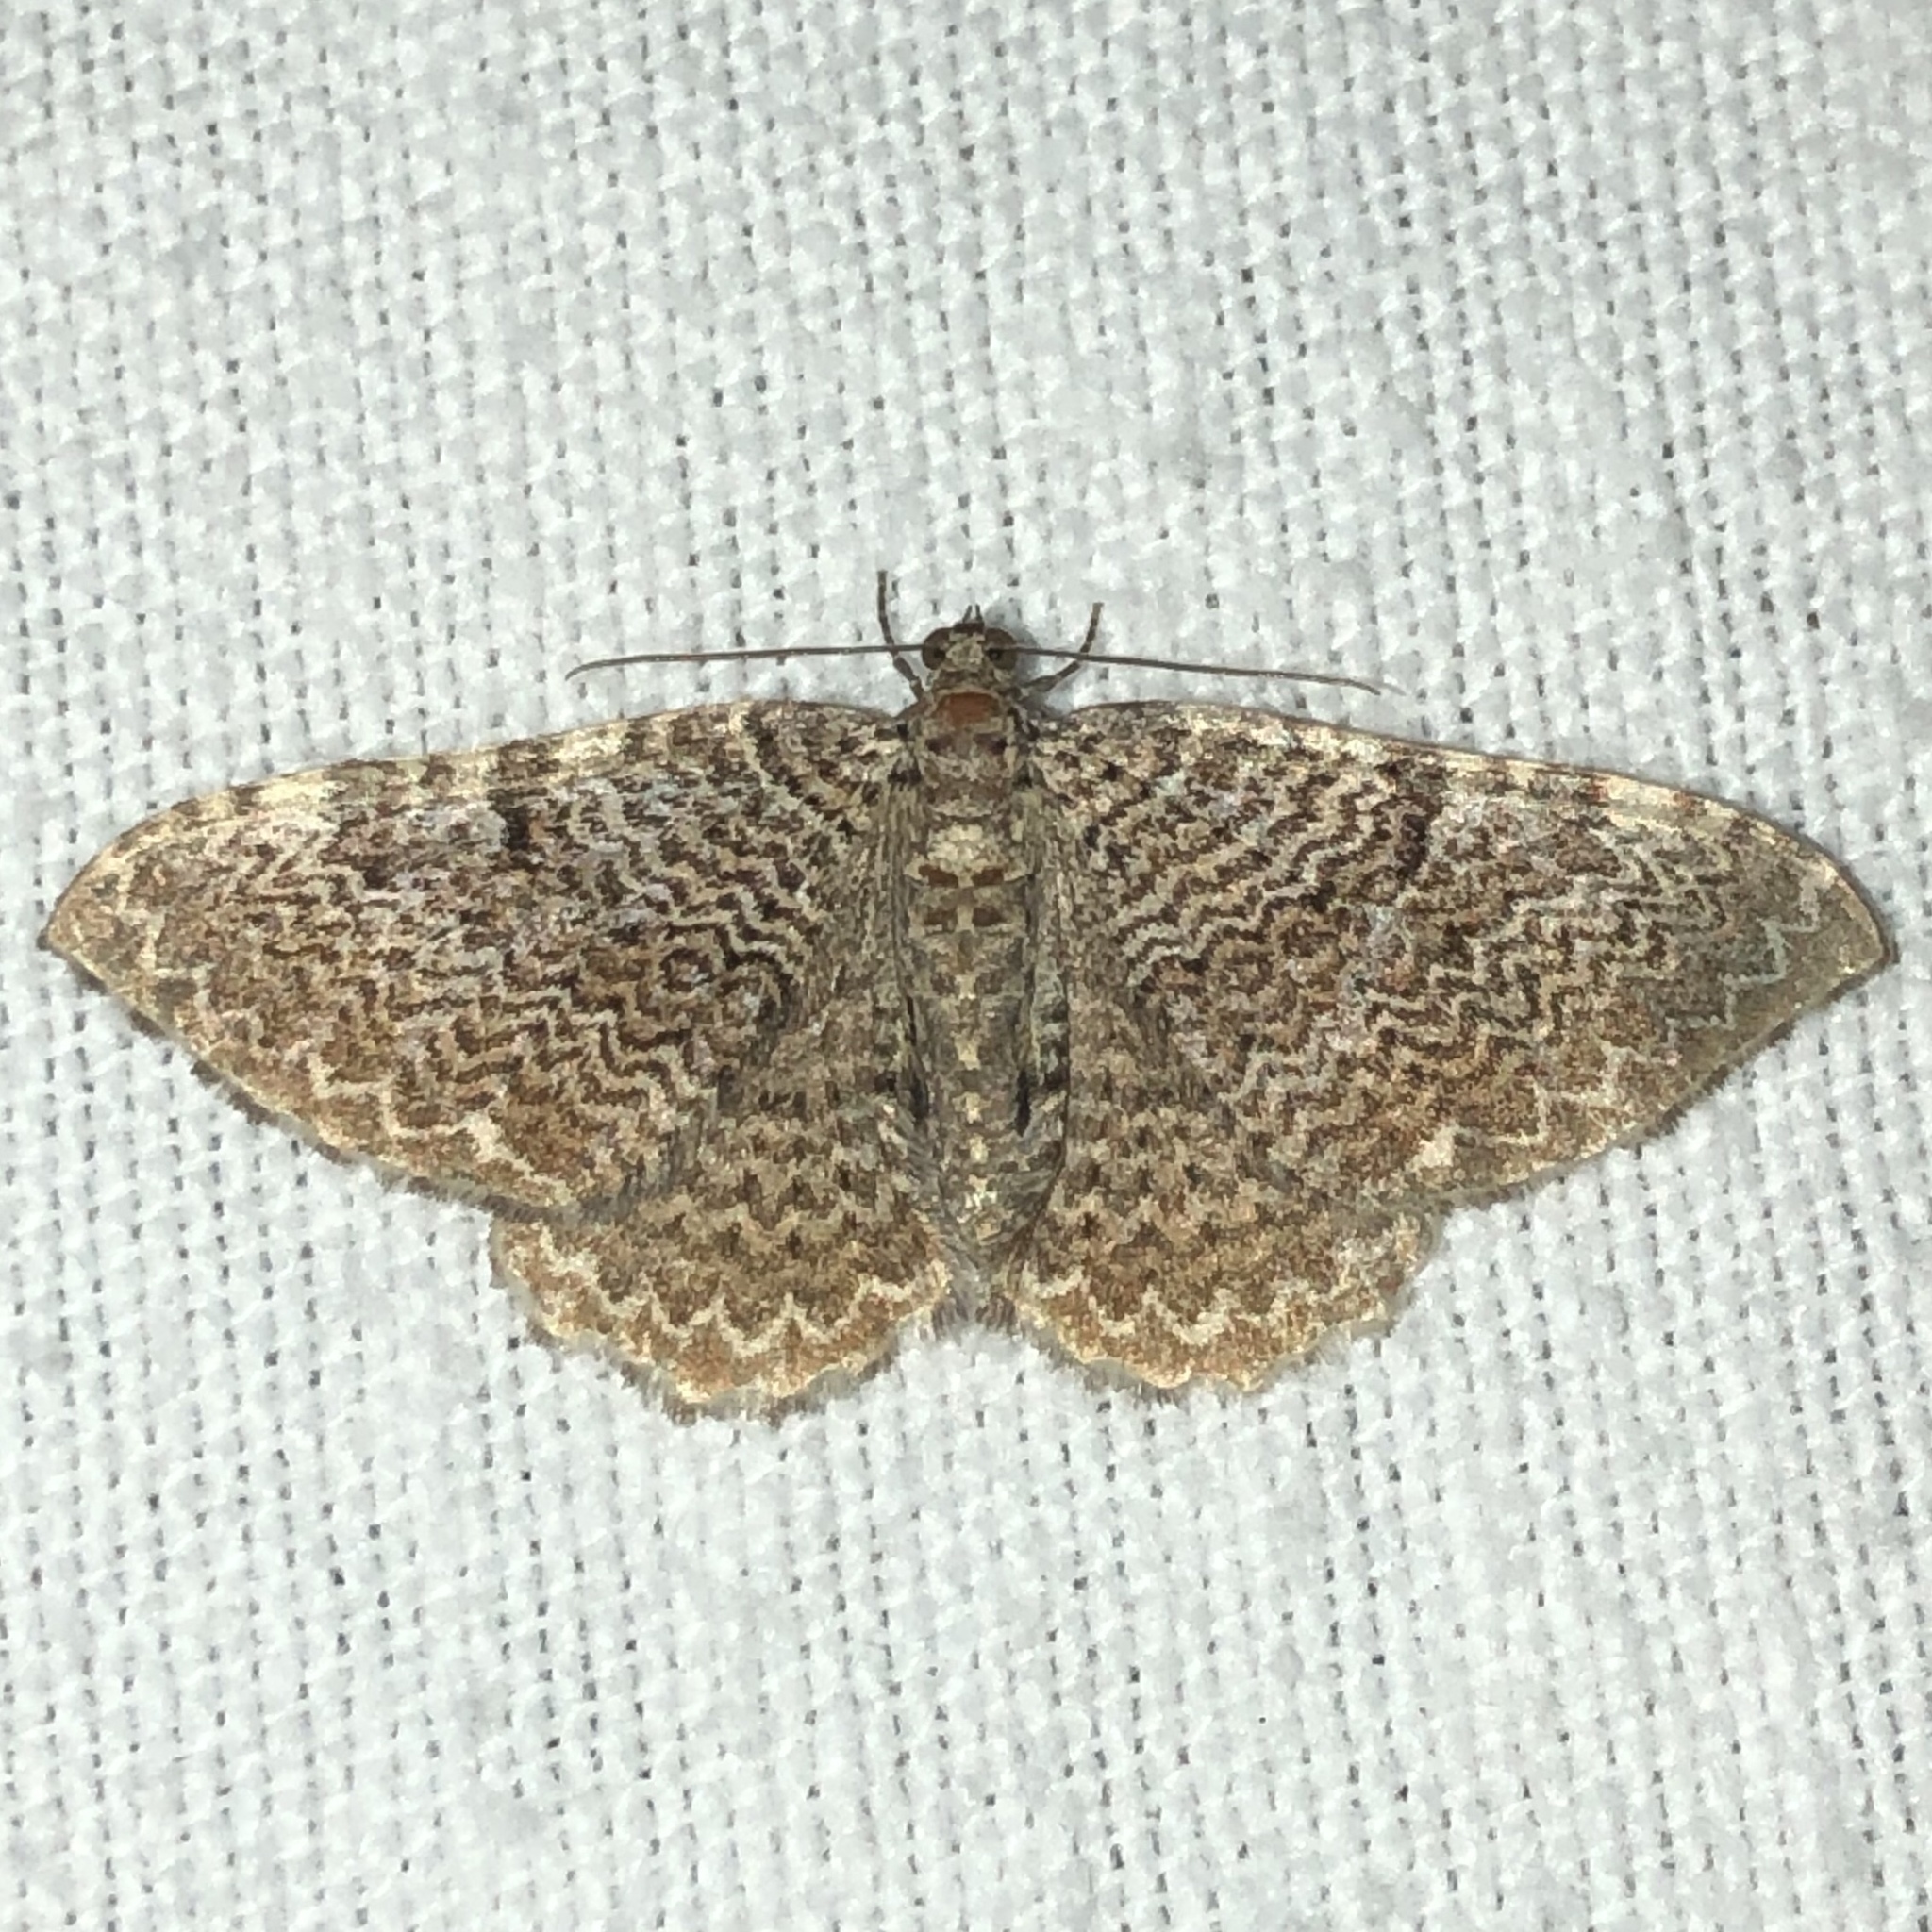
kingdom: Animalia
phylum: Arthropoda
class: Insecta
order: Lepidoptera
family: Geometridae
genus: Rheumaptera
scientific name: Rheumaptera prunivorata
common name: Cherry scallop shell moth
